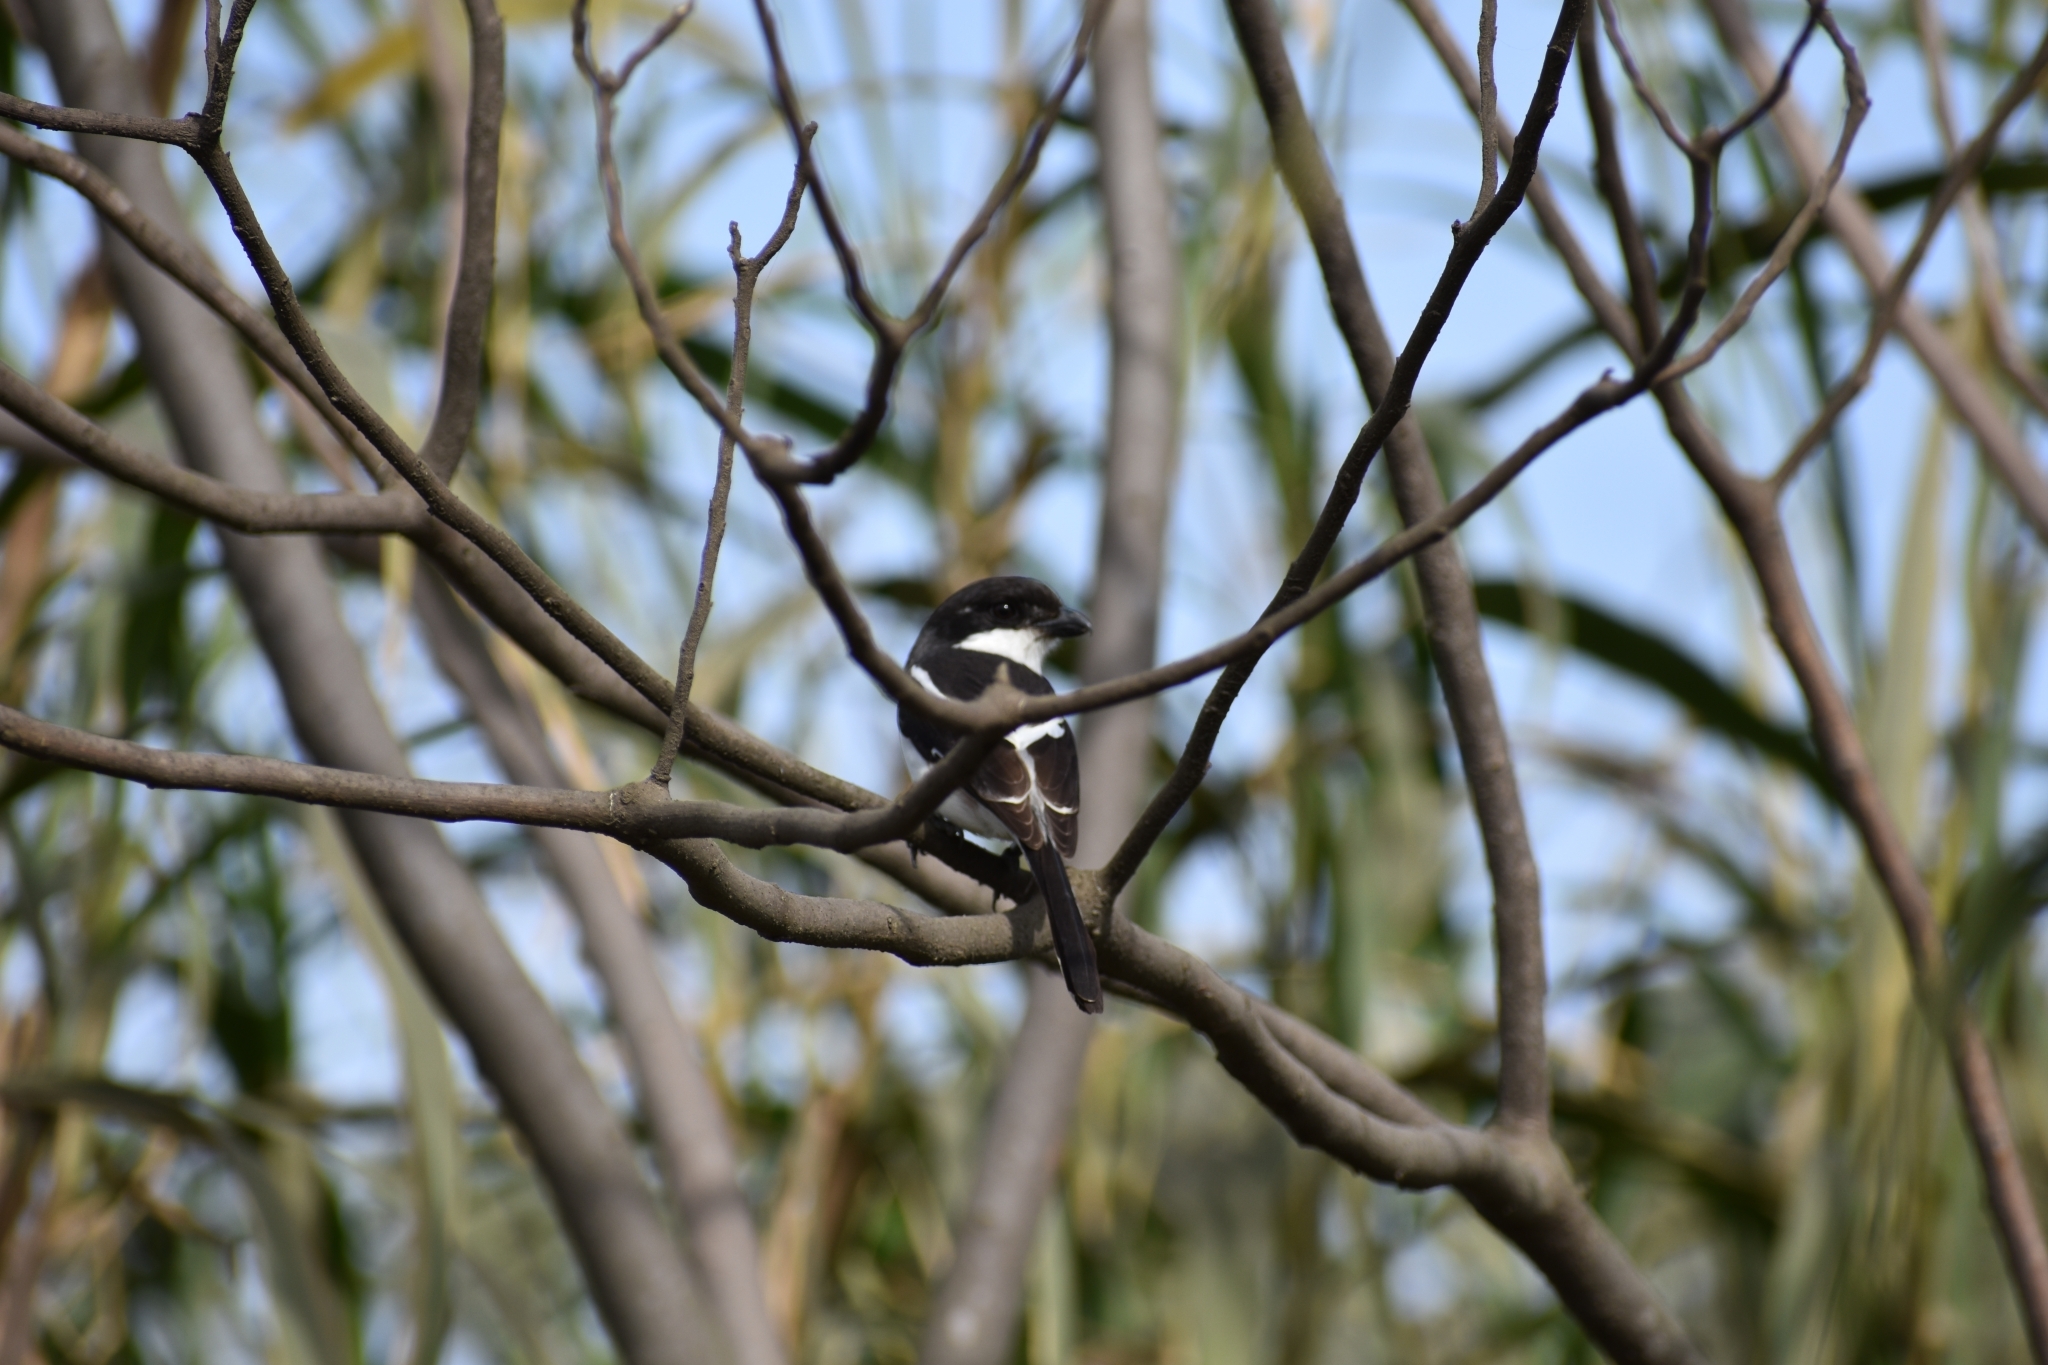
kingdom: Animalia
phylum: Chordata
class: Aves
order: Passeriformes
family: Laniidae
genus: Lanius
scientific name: Lanius collaris
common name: Southern fiscal
